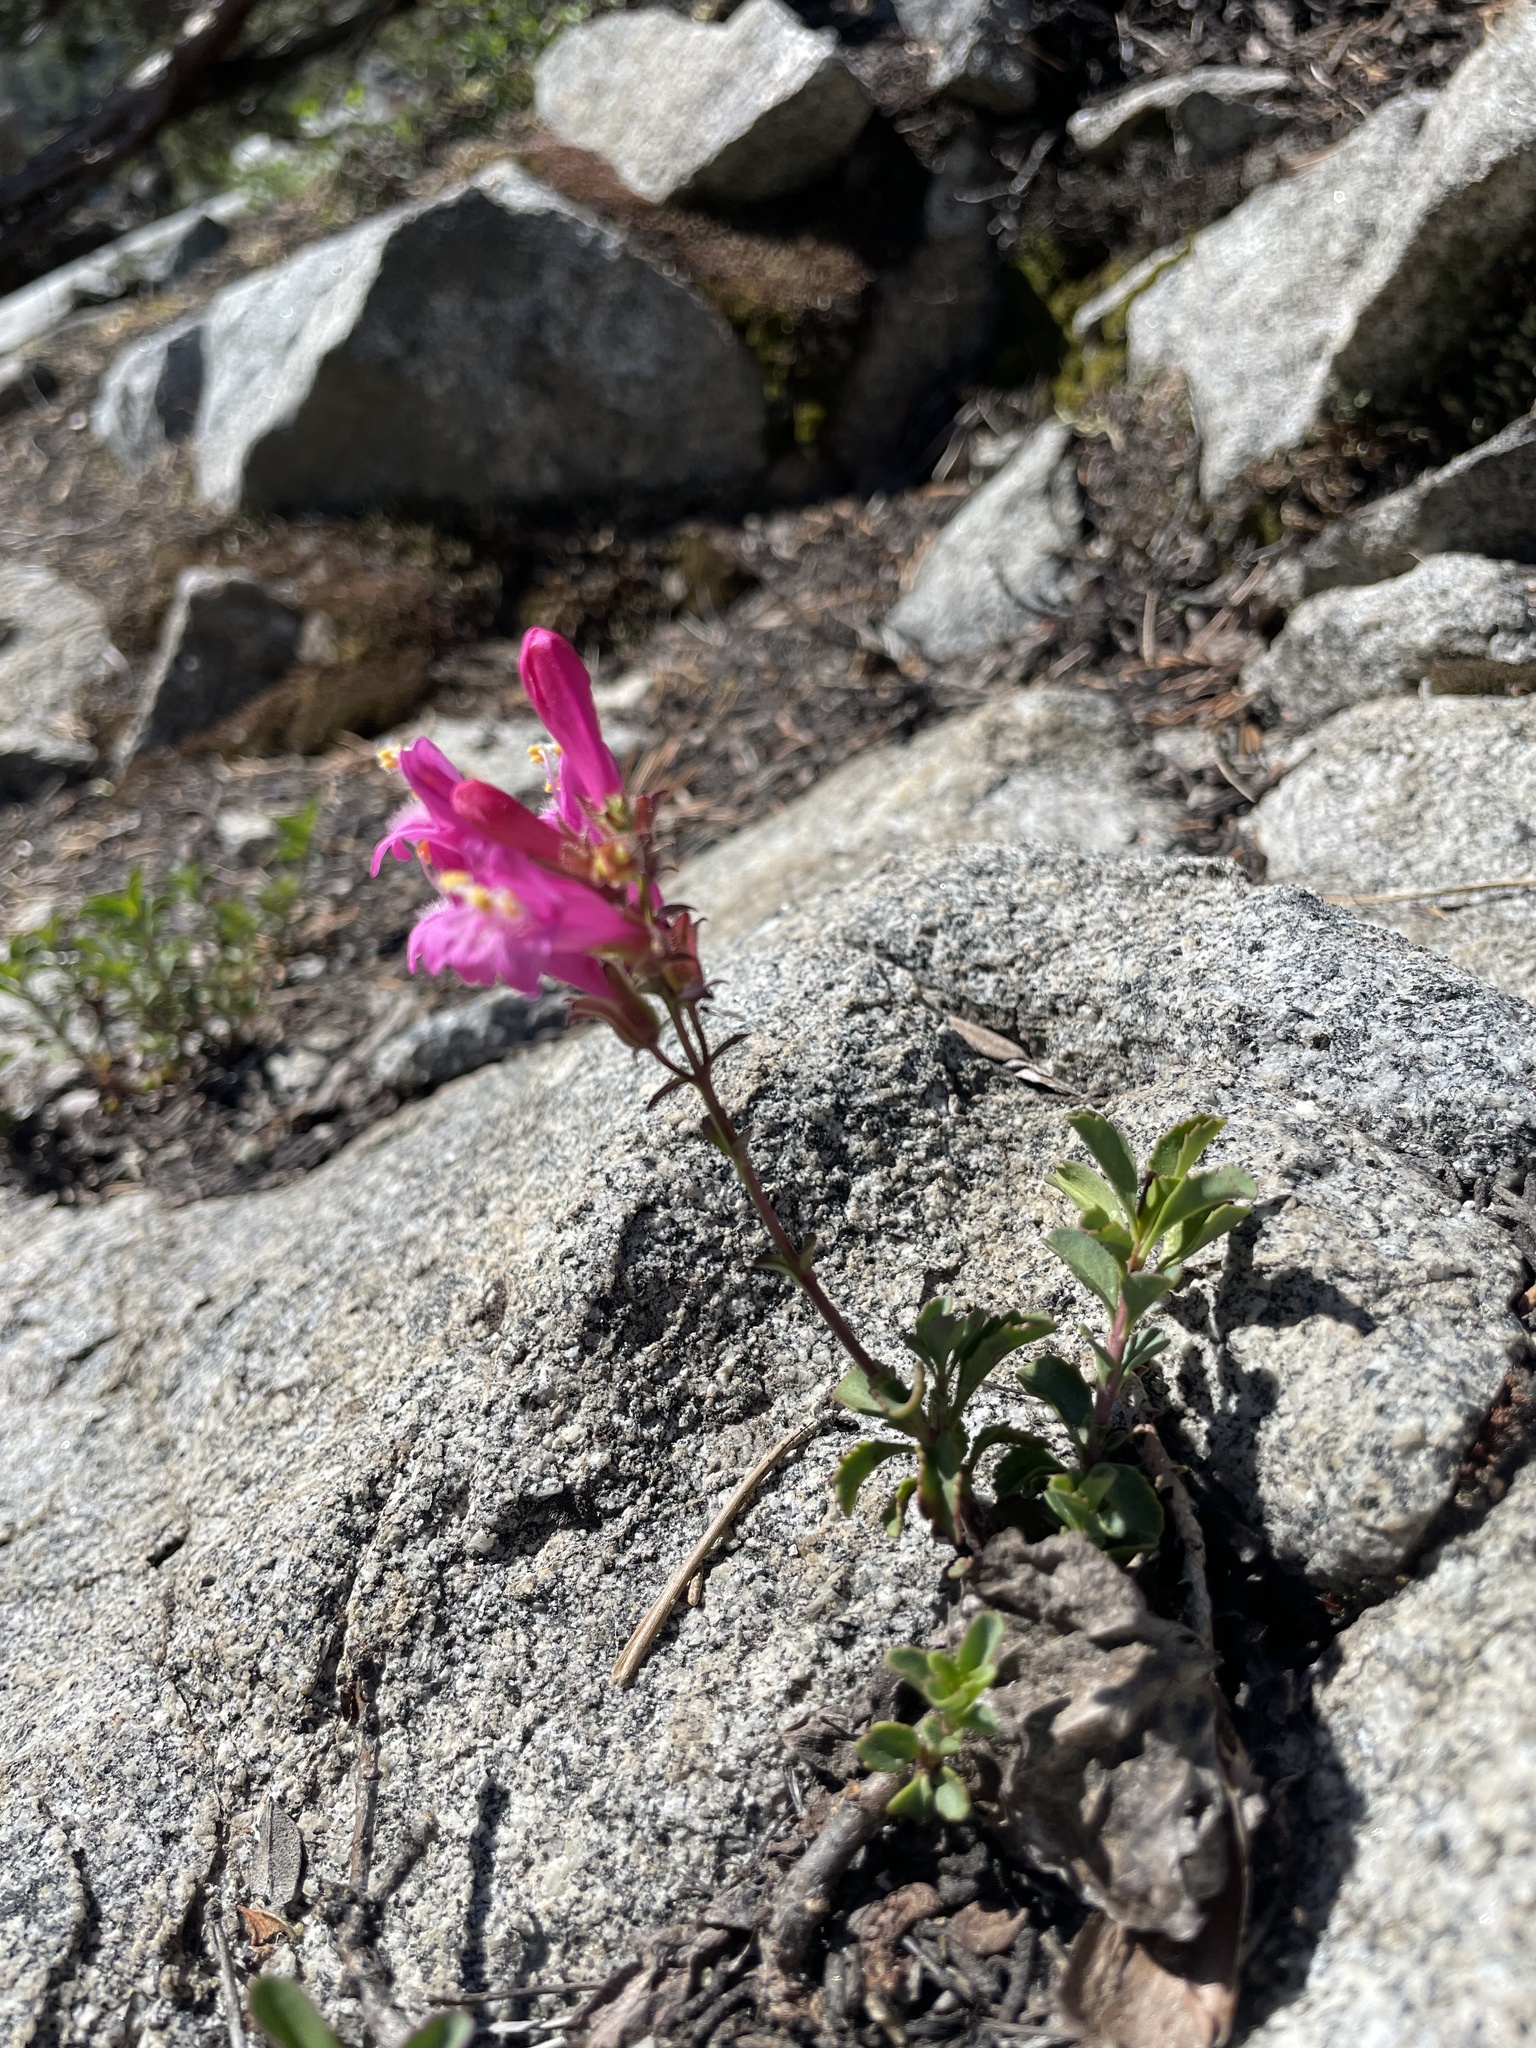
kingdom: Plantae
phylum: Tracheophyta
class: Magnoliopsida
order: Lamiales
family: Plantaginaceae
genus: Penstemon
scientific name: Penstemon newberryi
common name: Mountain-pride
